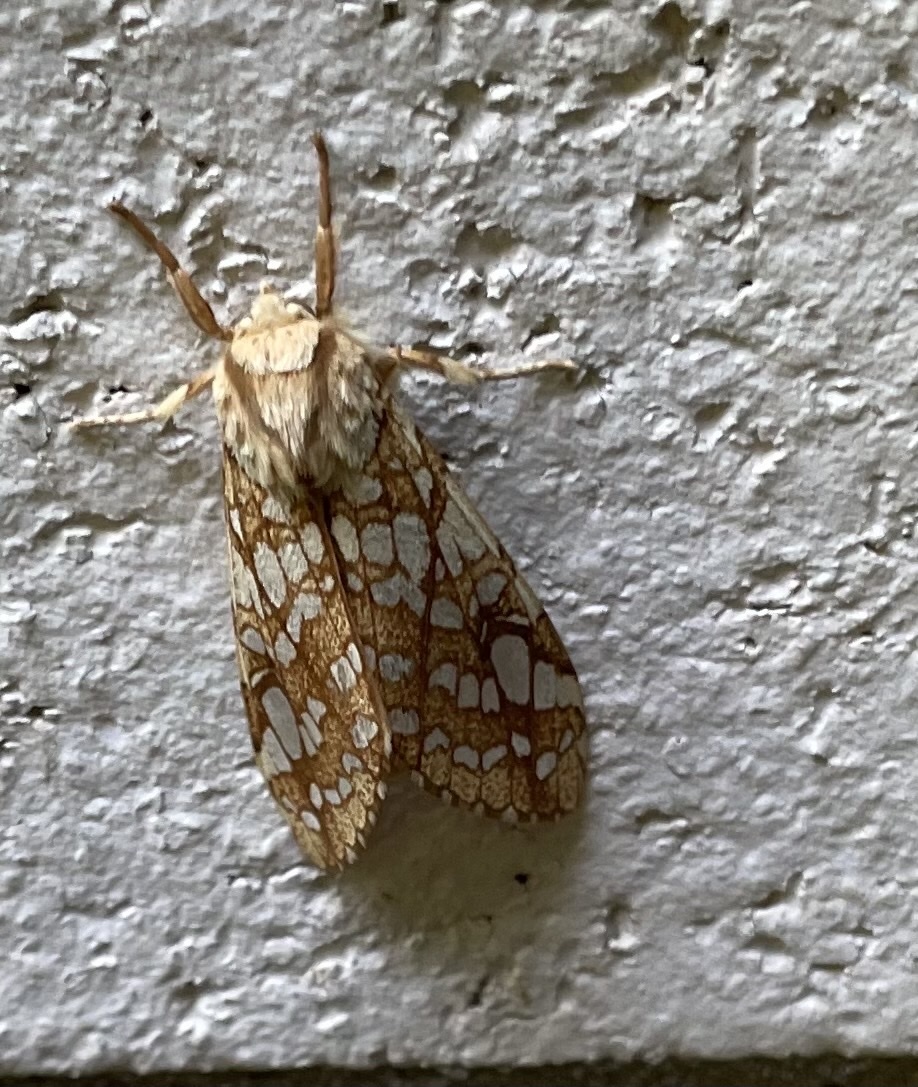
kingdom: Animalia
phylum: Arthropoda
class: Insecta
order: Lepidoptera
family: Erebidae
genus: Lophocampa
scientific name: Lophocampa caryae
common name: Hickory tussock moth
